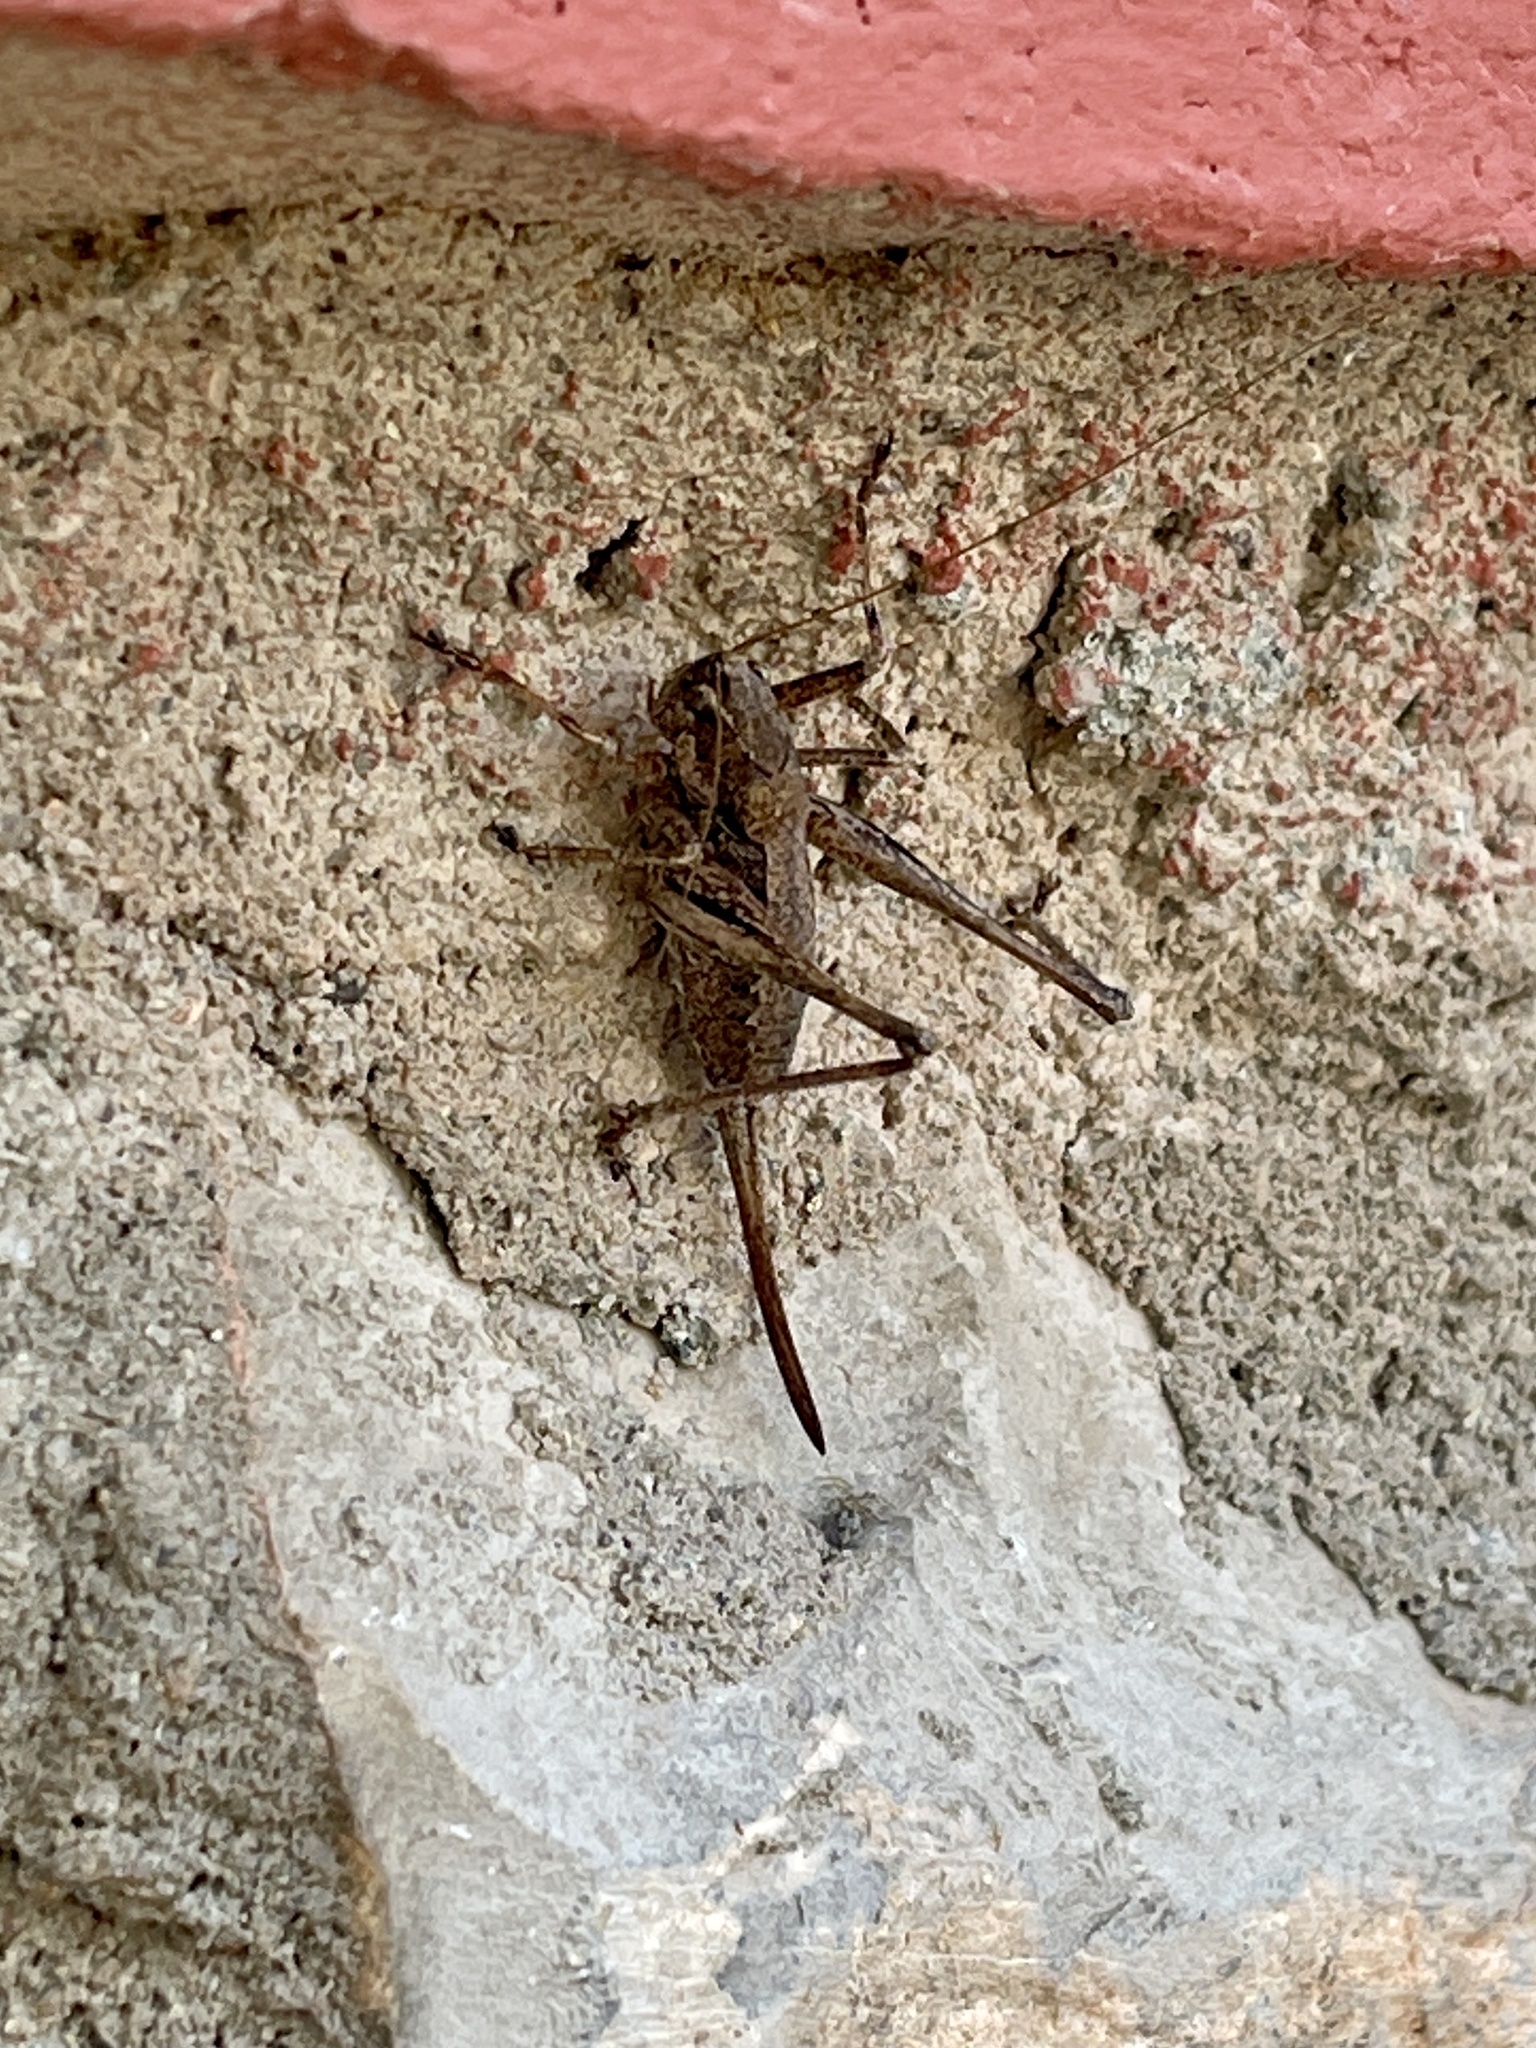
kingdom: Animalia
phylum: Arthropoda
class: Insecta
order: Orthoptera
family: Tettigoniidae
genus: Eremopedes
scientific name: Eremopedes ephippiatus
